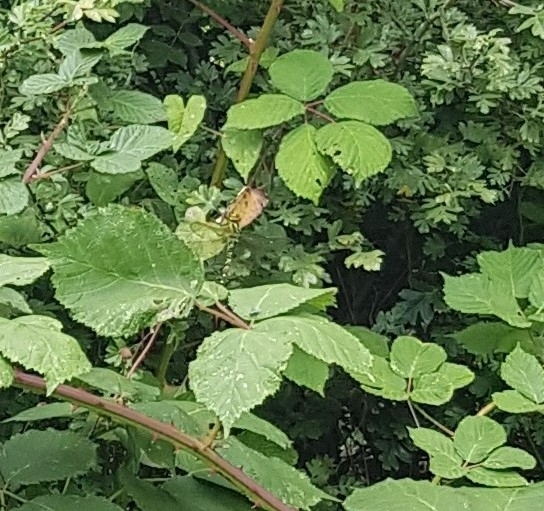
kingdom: Animalia
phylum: Arthropoda
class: Insecta
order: Odonata
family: Aeshnidae
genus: Aeshna
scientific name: Aeshna cyanea
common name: Southern hawker
